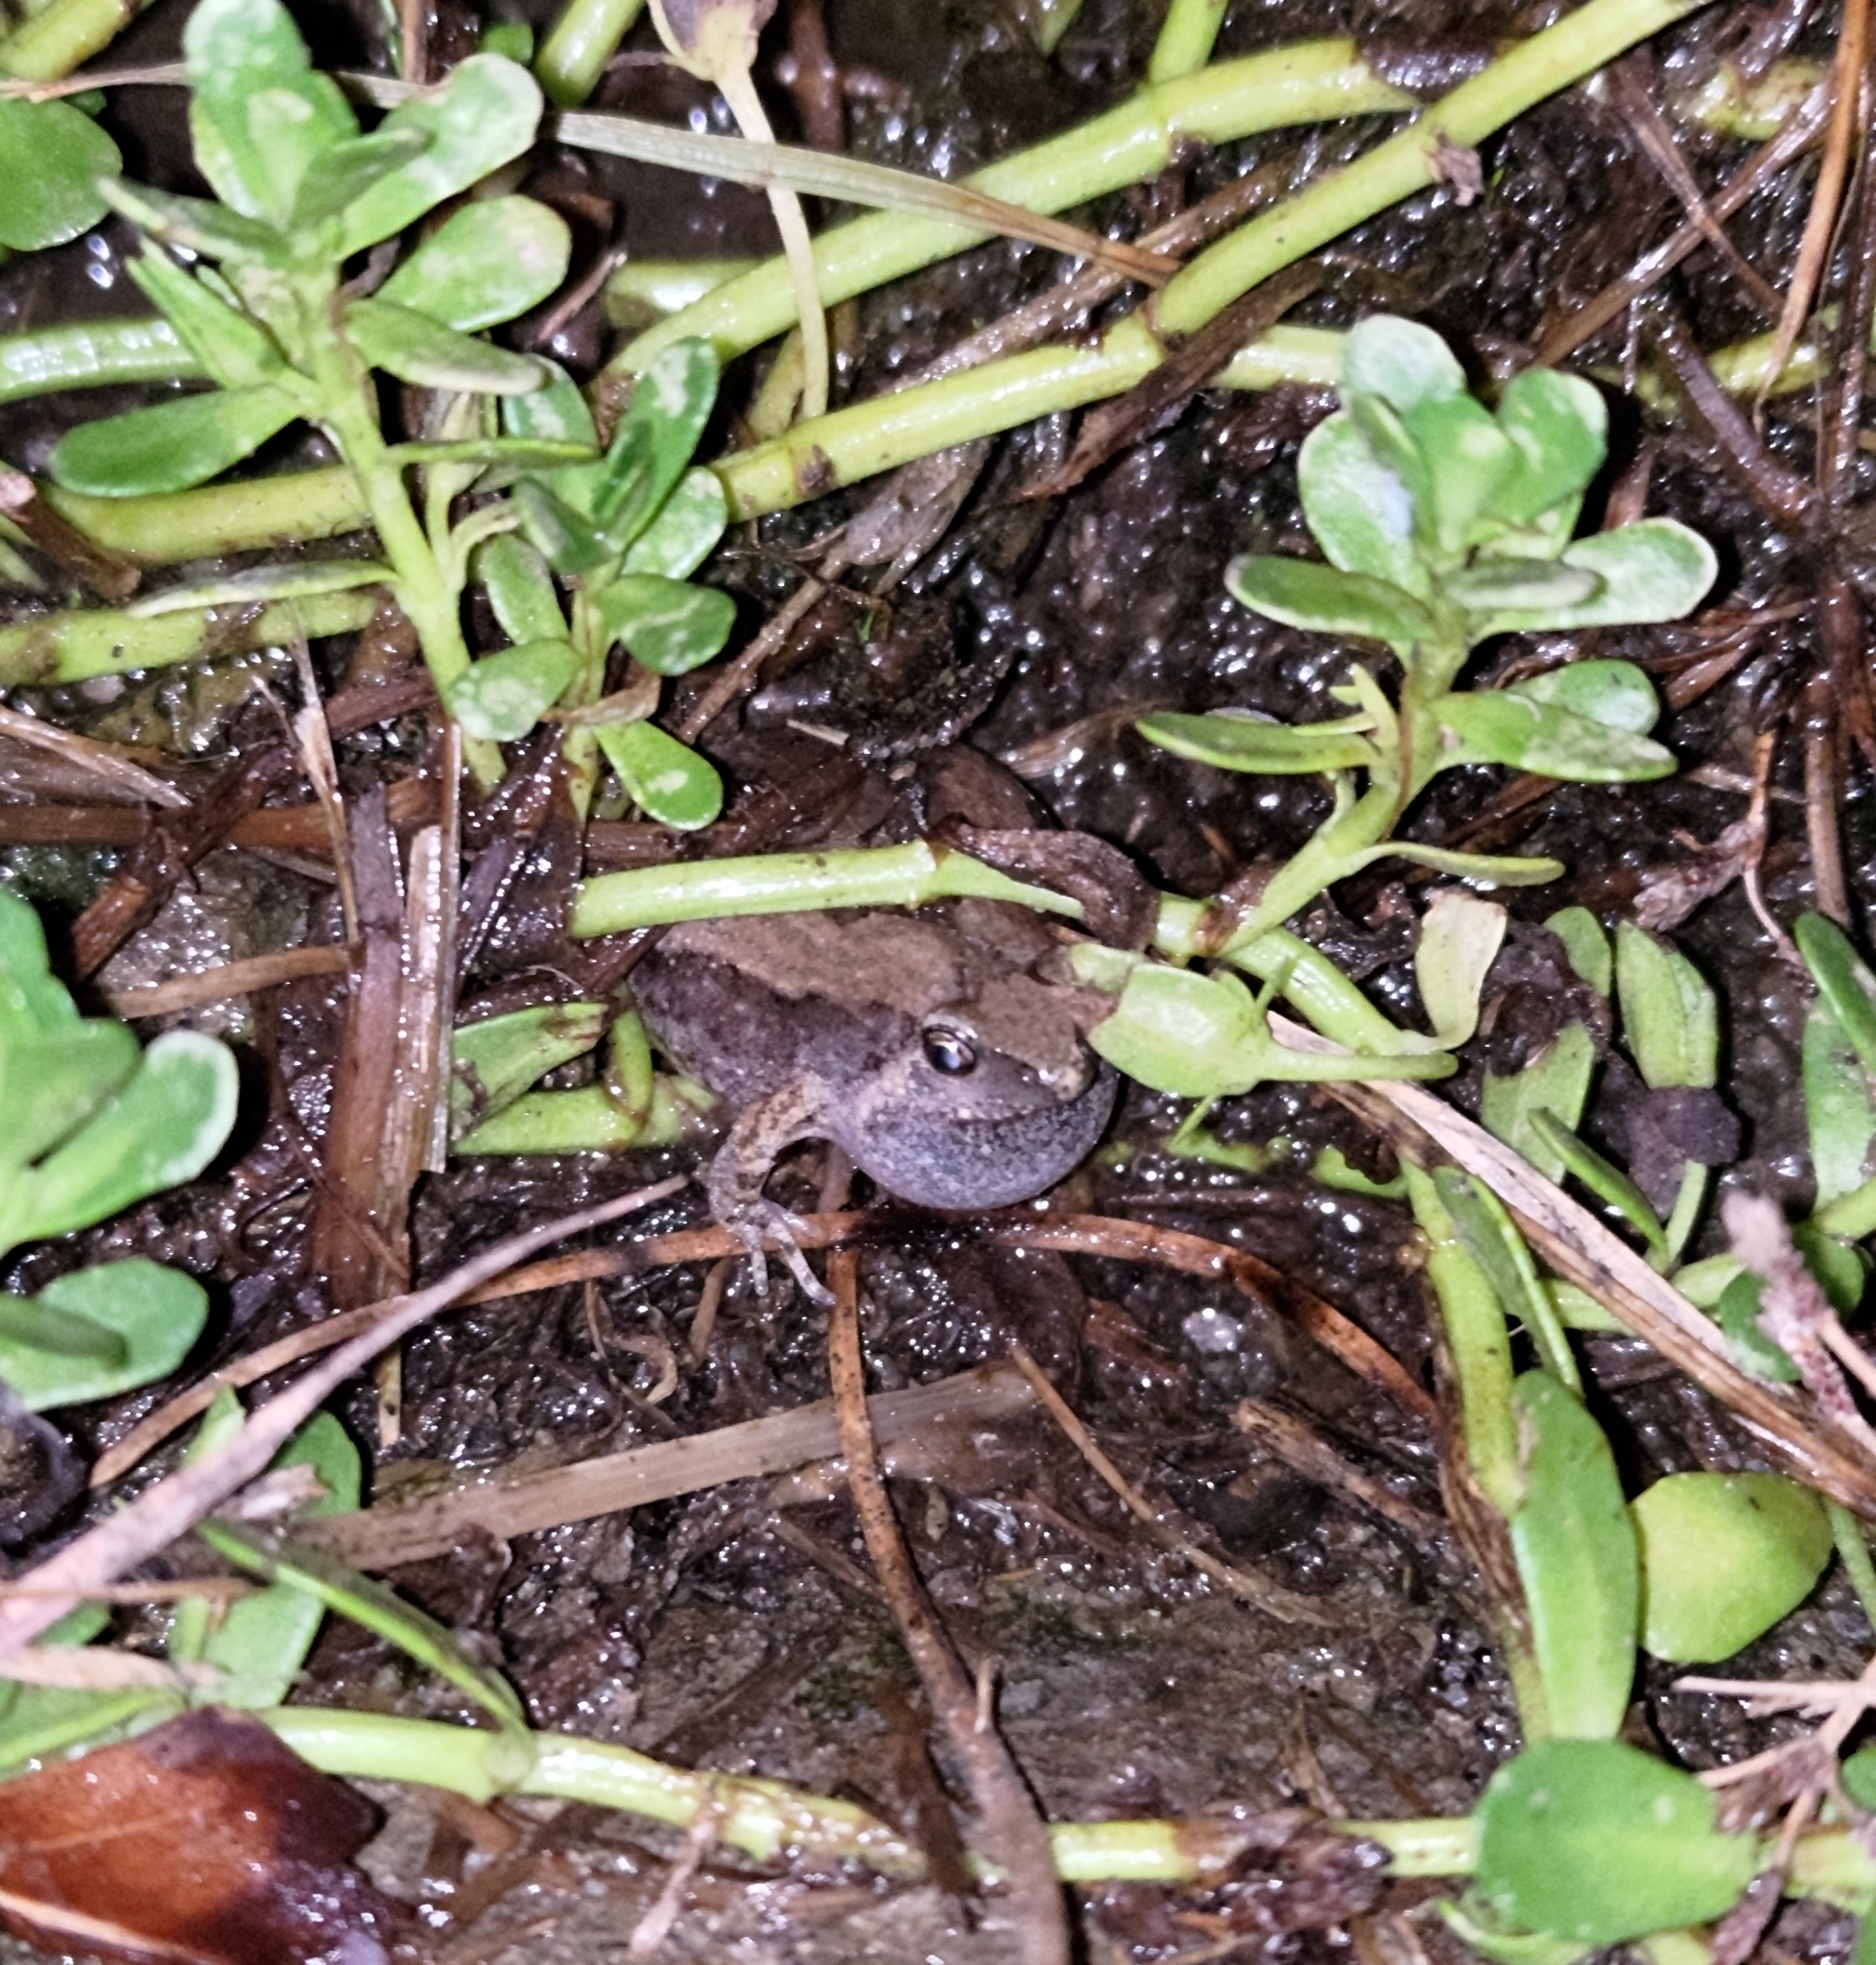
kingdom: Animalia
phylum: Chordata
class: Amphibia
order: Anura
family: Microhylidae
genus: Microhyla
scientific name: Microhyla fissipes
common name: Ornate narrow-mouthed frog
